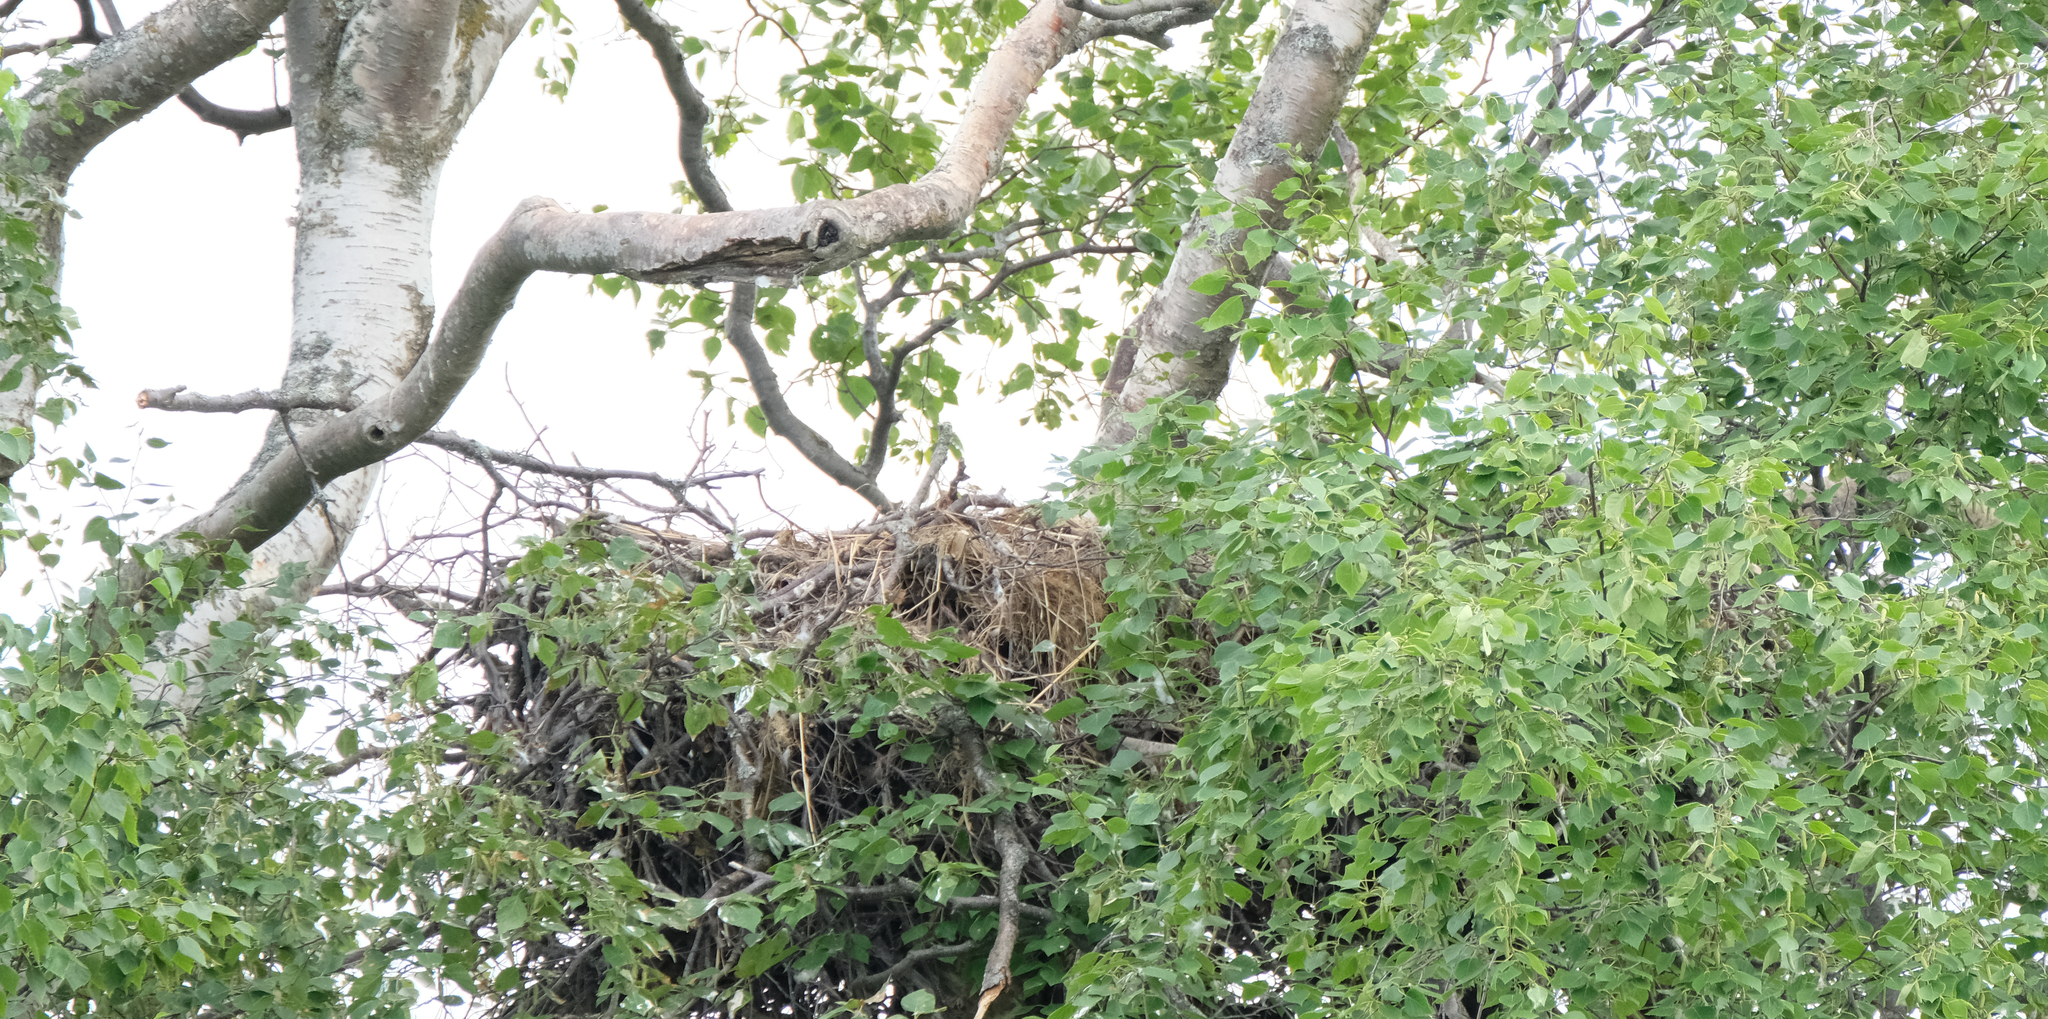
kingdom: Animalia
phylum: Chordata
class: Aves
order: Accipitriformes
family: Accipitridae
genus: Haliaeetus
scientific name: Haliaeetus leucocephalus
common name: Bald eagle
